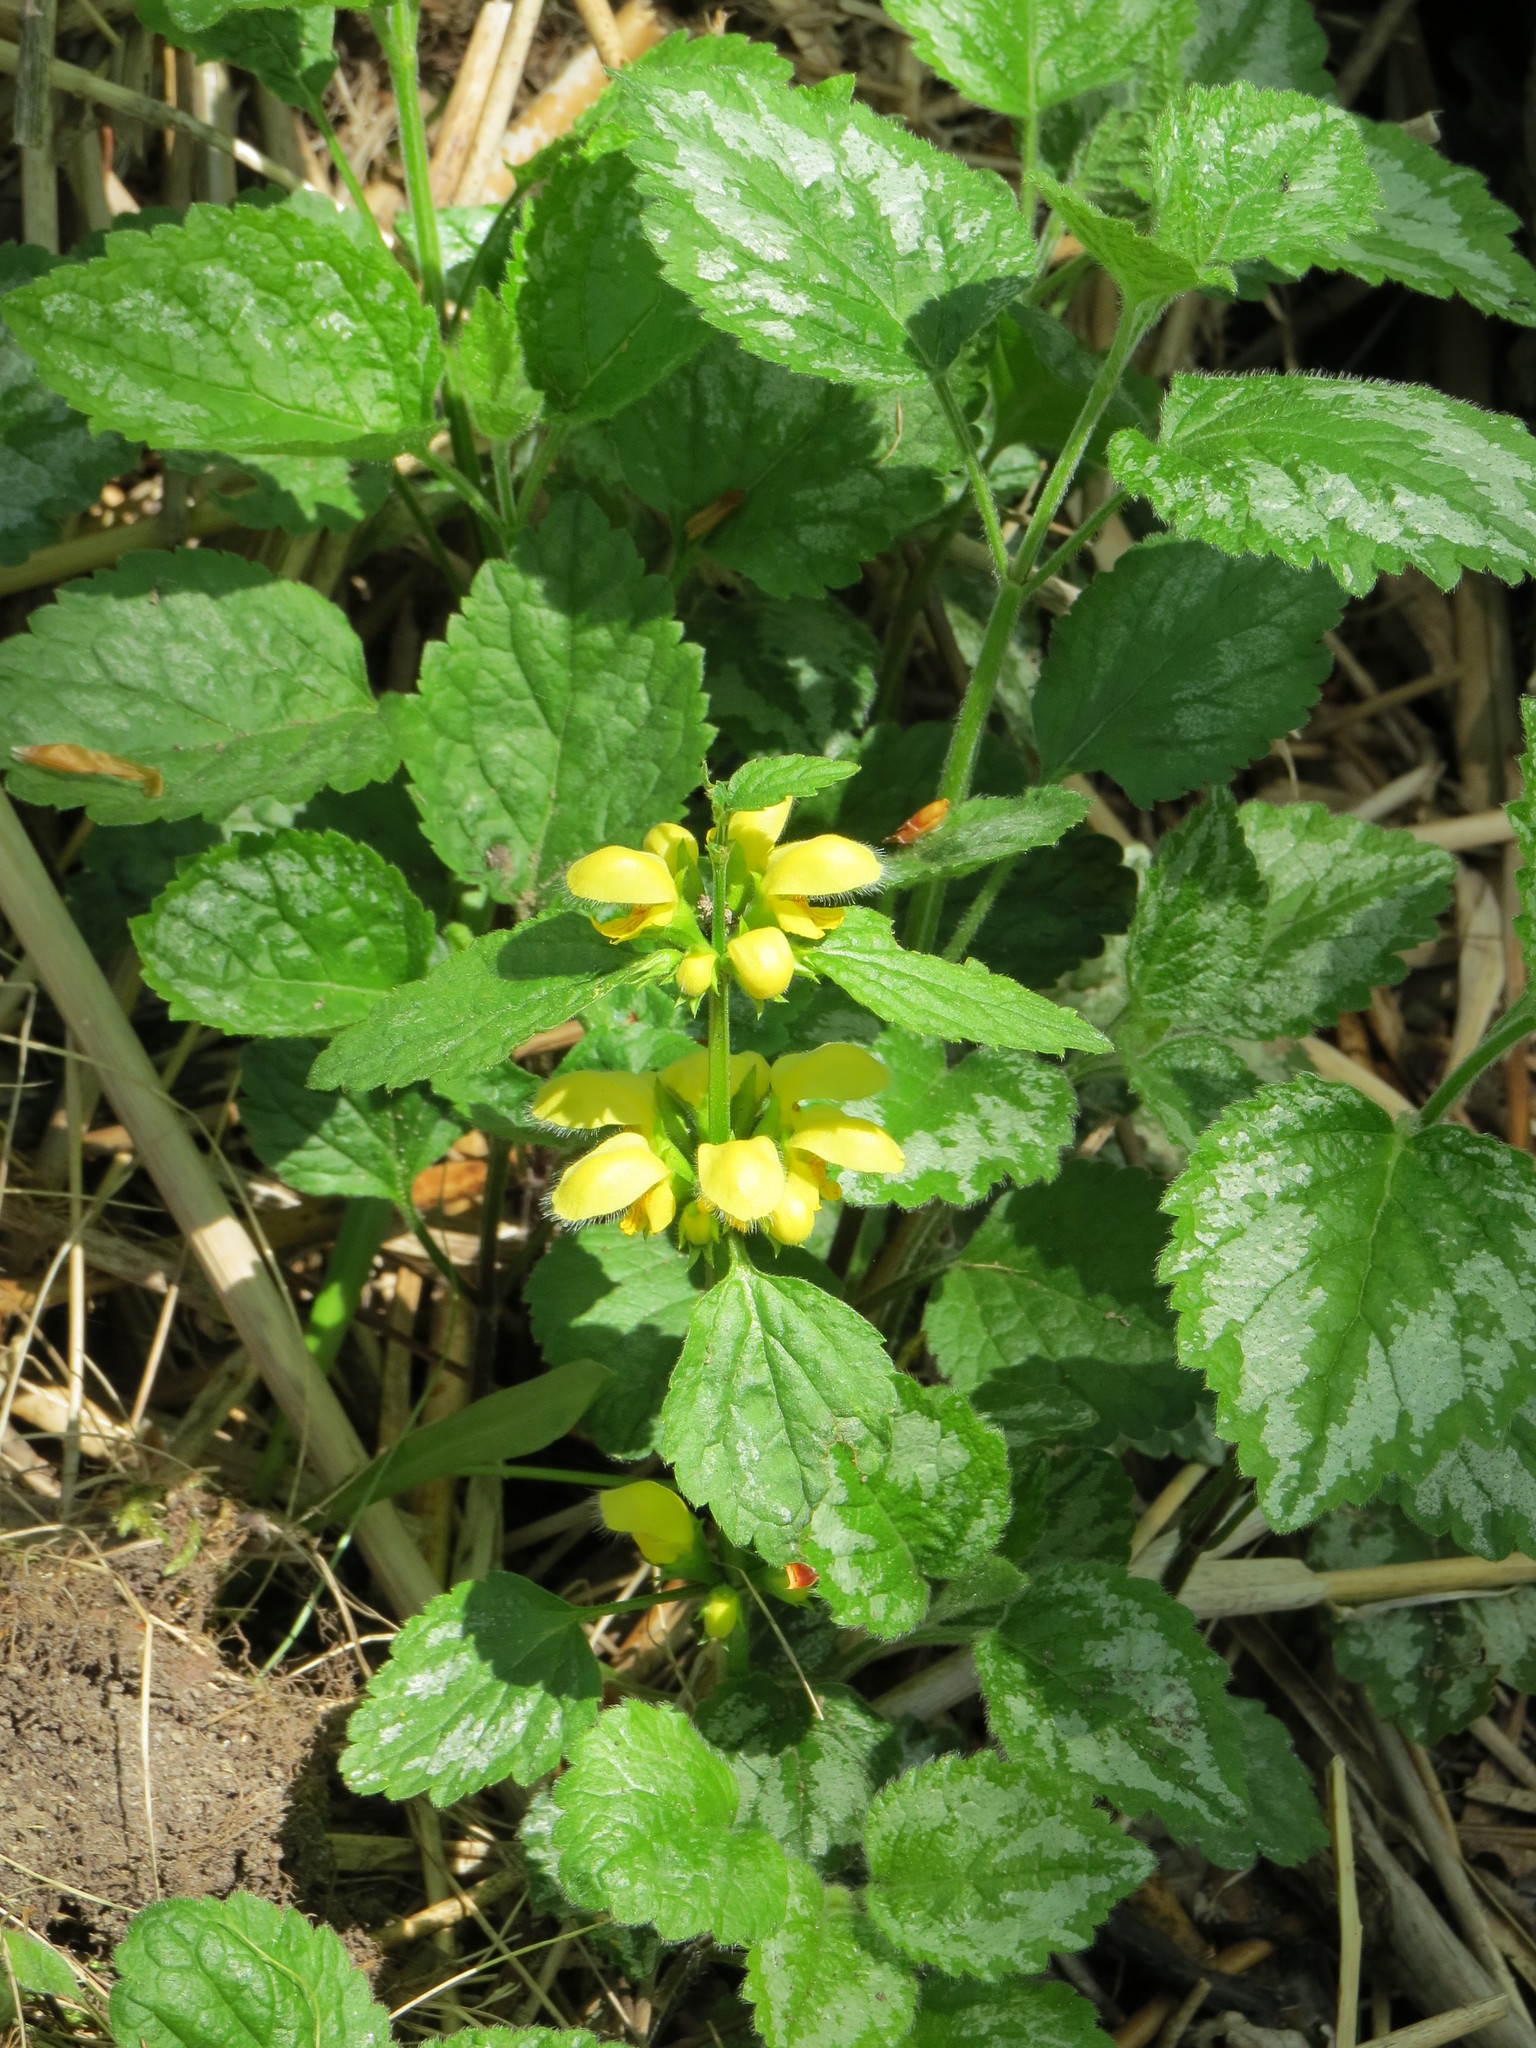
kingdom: Plantae
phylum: Tracheophyta
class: Magnoliopsida
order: Lamiales
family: Lamiaceae
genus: Lamium
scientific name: Lamium galeobdolon
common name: Yellow archangel
